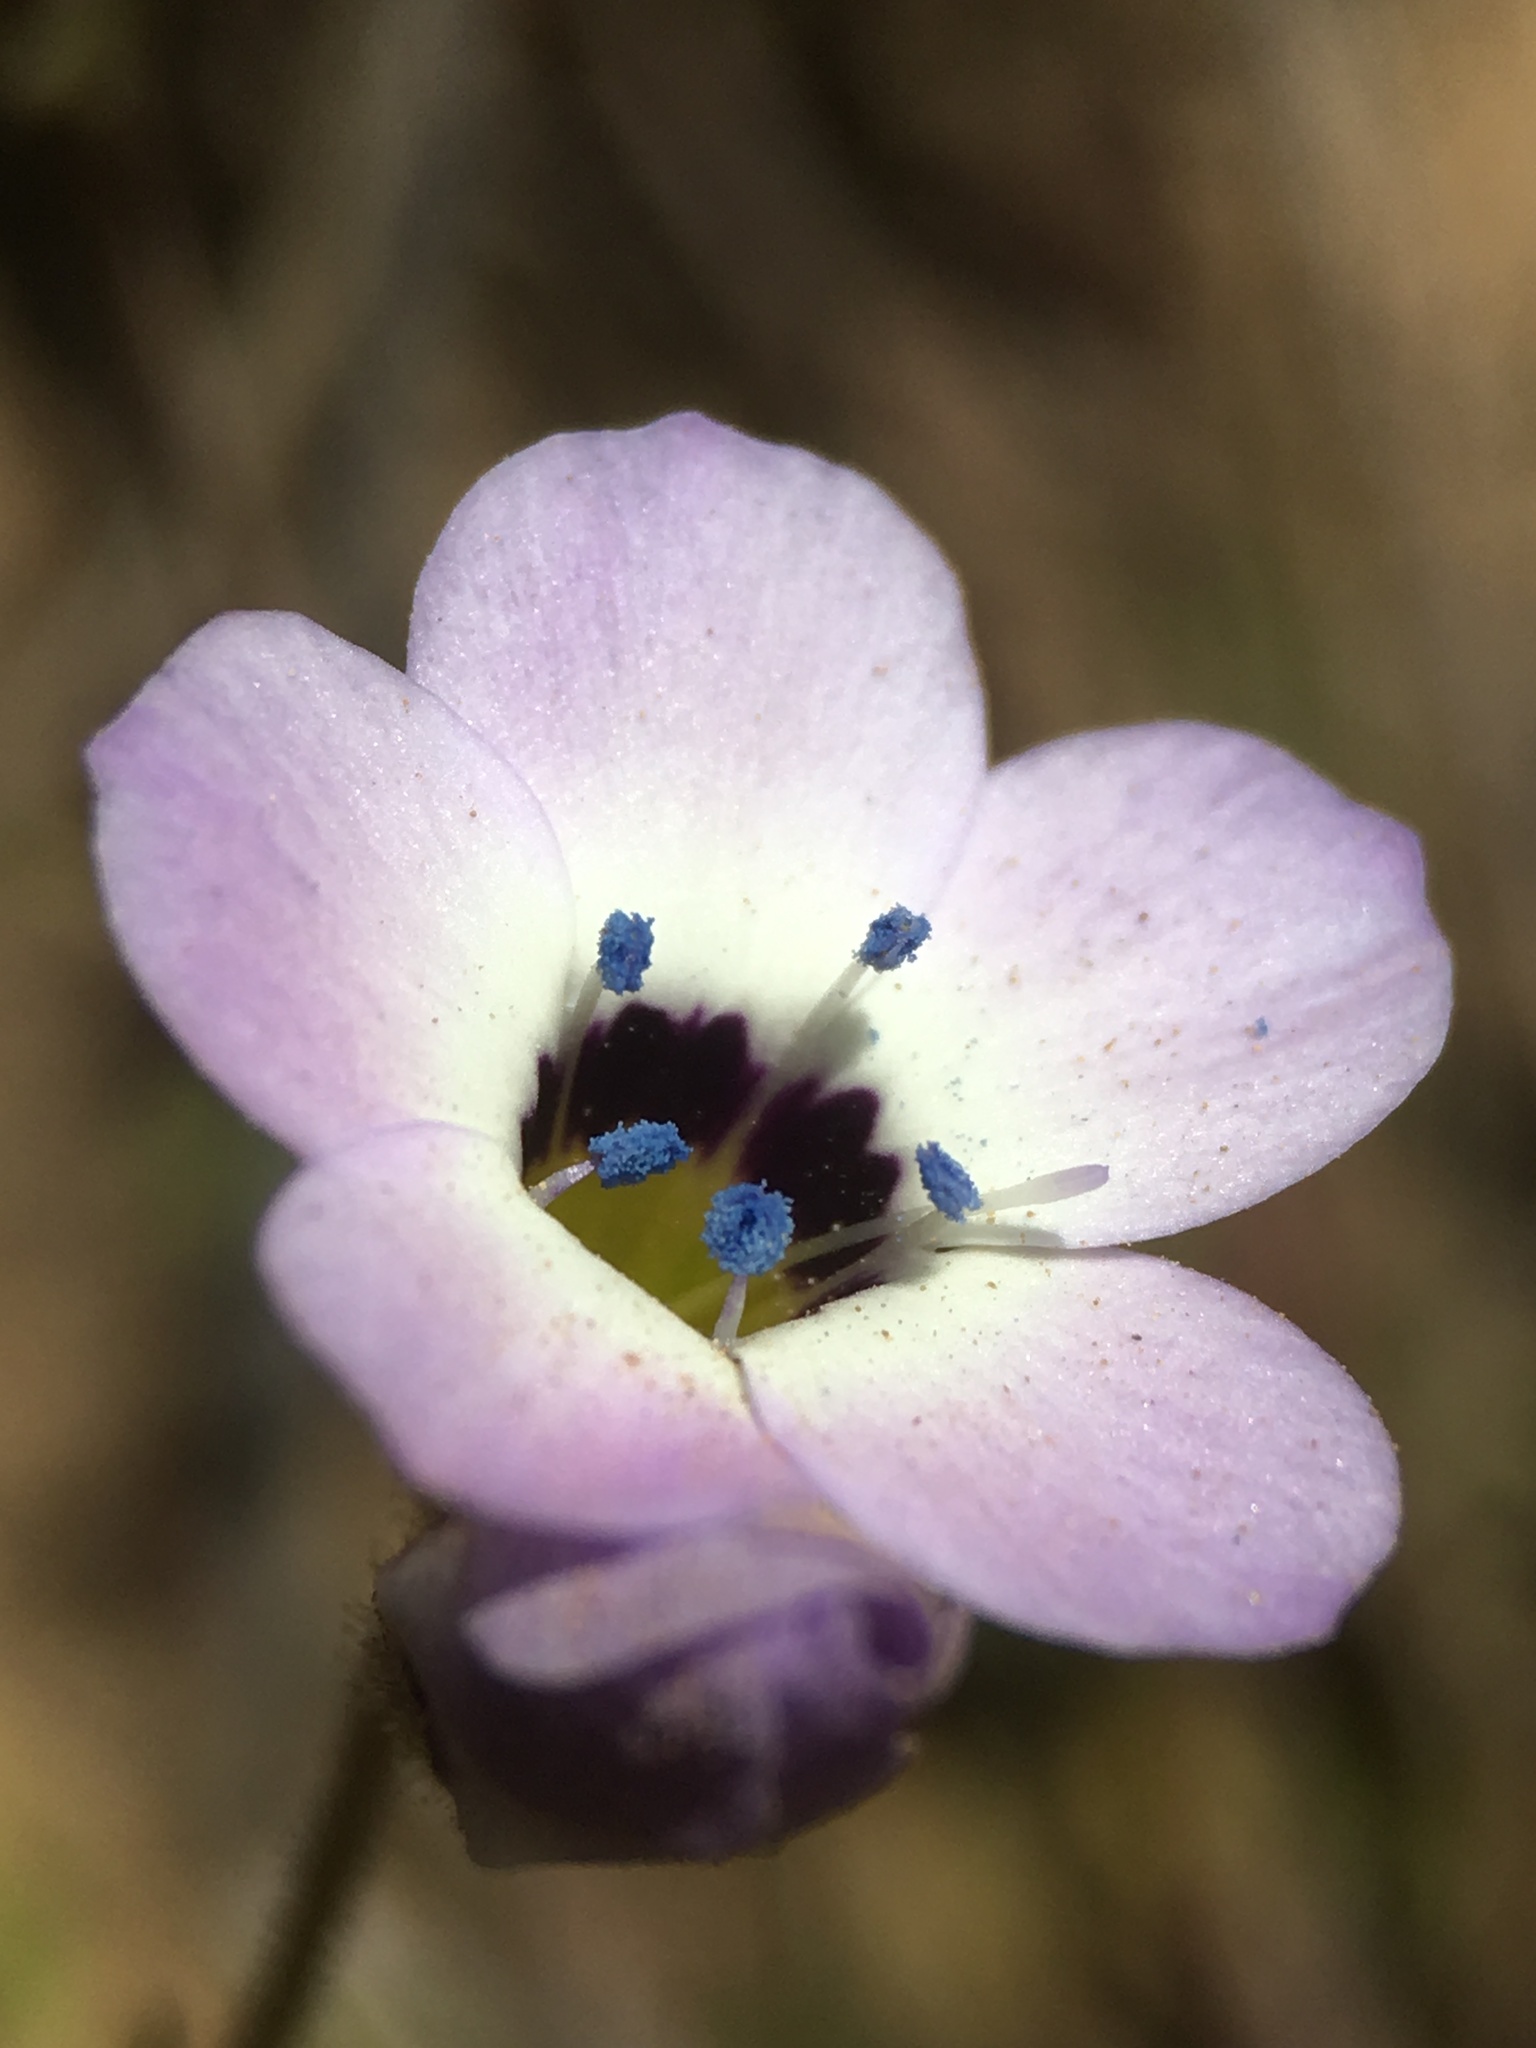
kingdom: Plantae
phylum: Tracheophyta
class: Magnoliopsida
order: Ericales
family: Polemoniaceae
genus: Gilia
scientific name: Gilia tricolor
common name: Bird's-eyes
